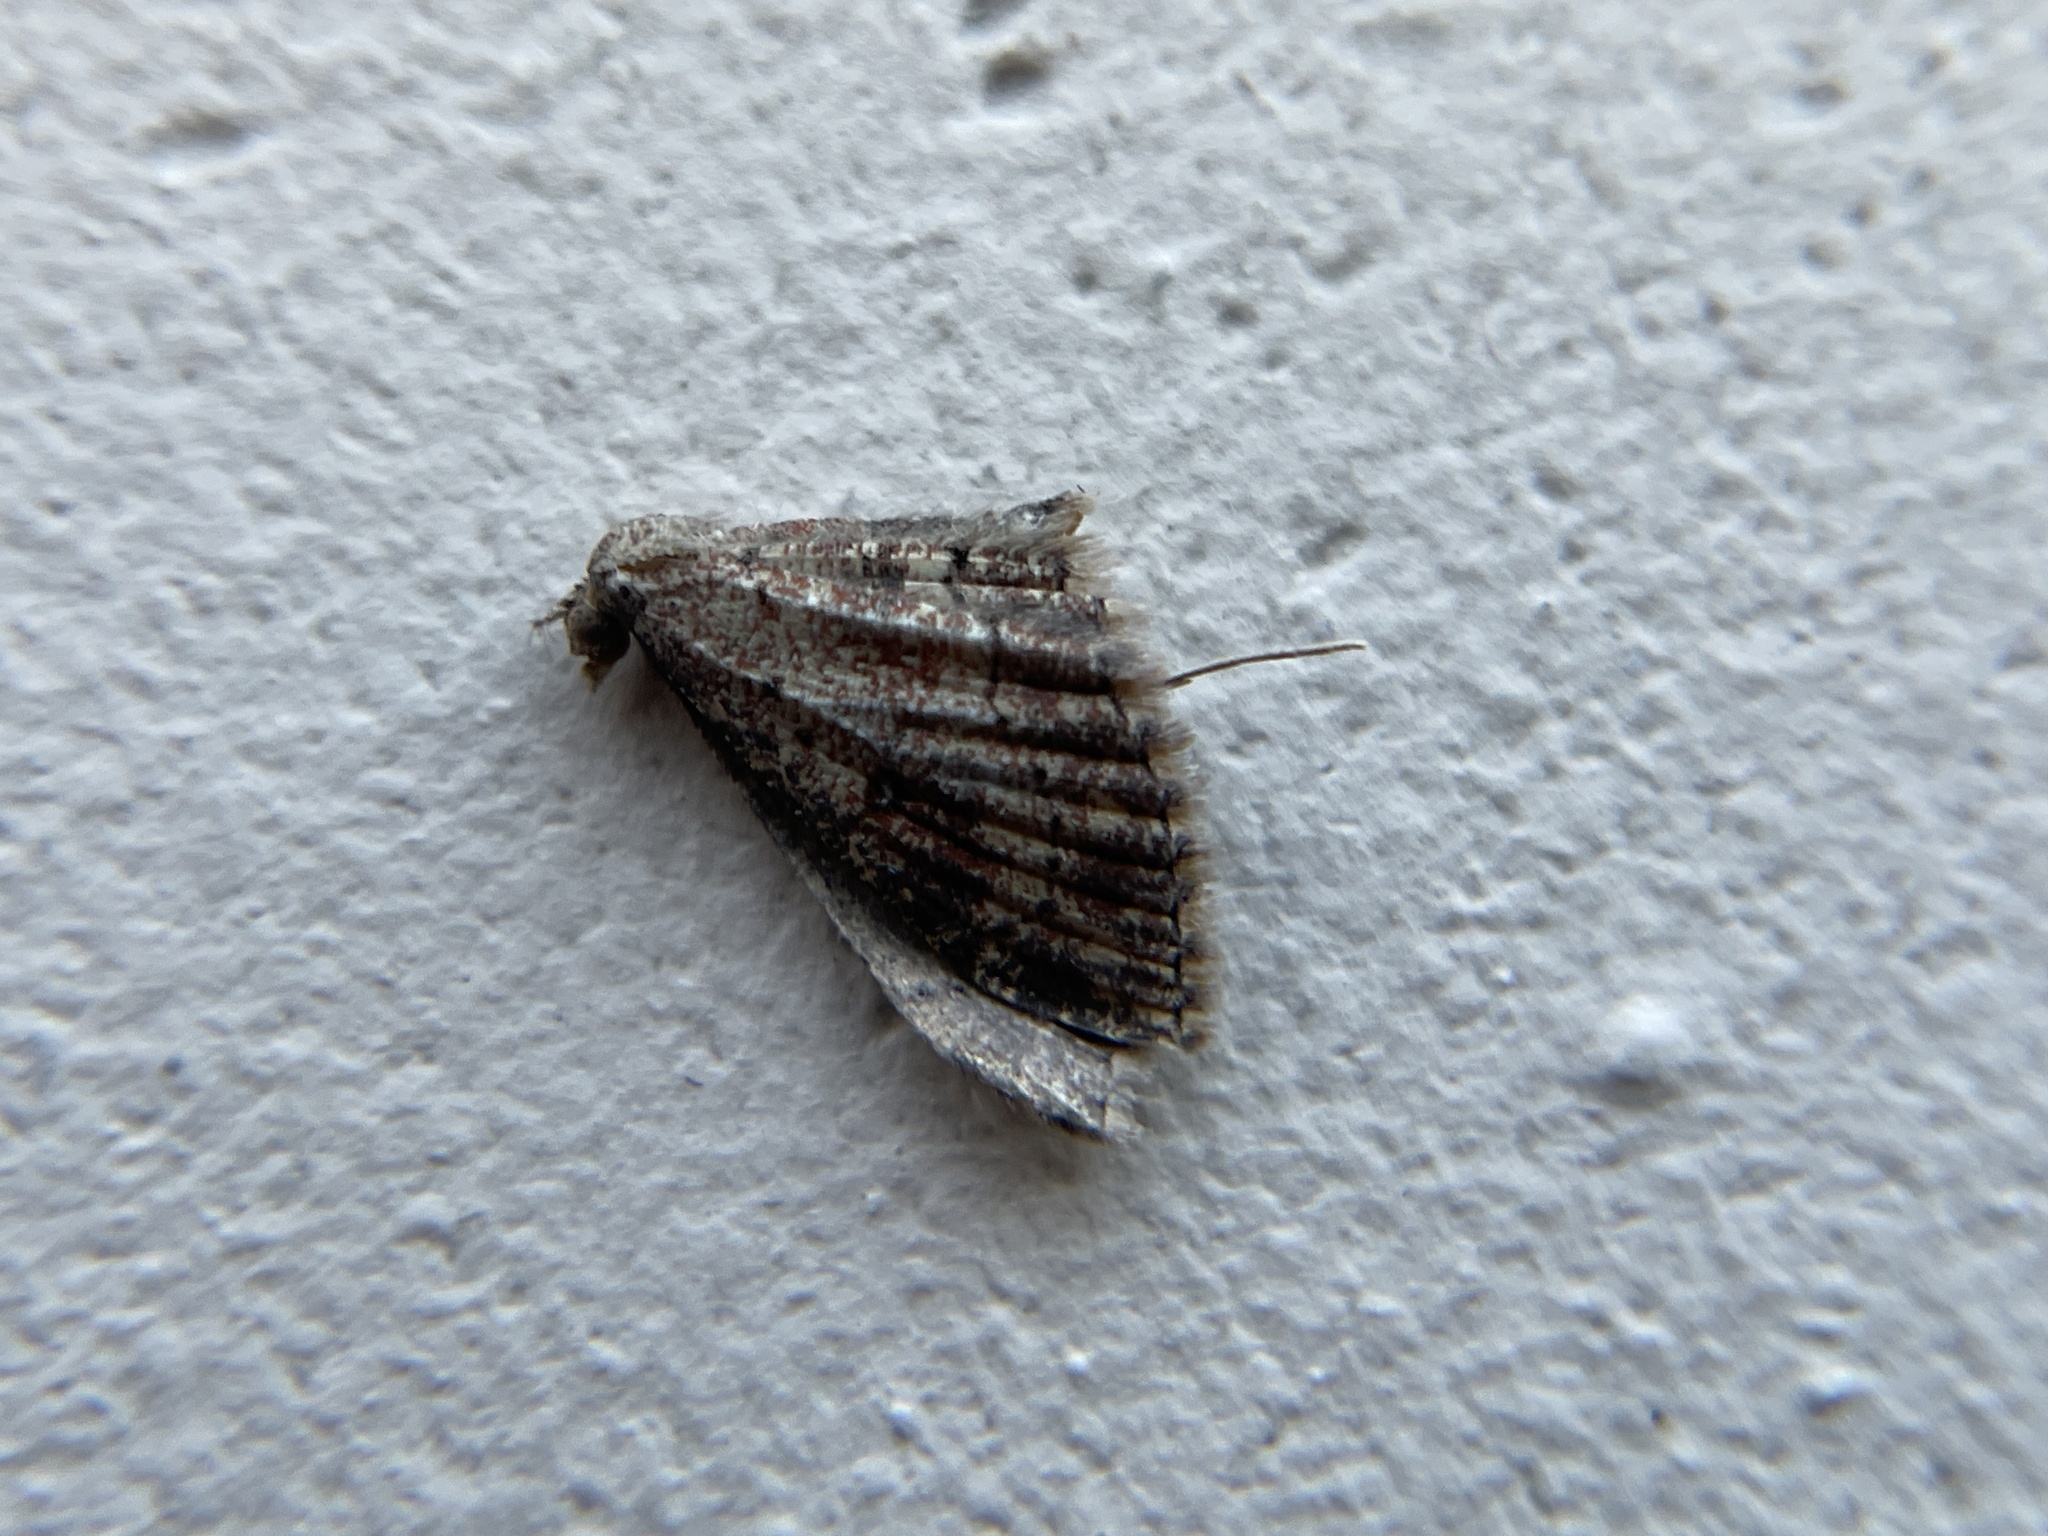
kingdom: Animalia
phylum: Arthropoda
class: Insecta
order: Lepidoptera
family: Geometridae
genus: Cyclophora
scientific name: Cyclophora nanaria
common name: Cankerworm
